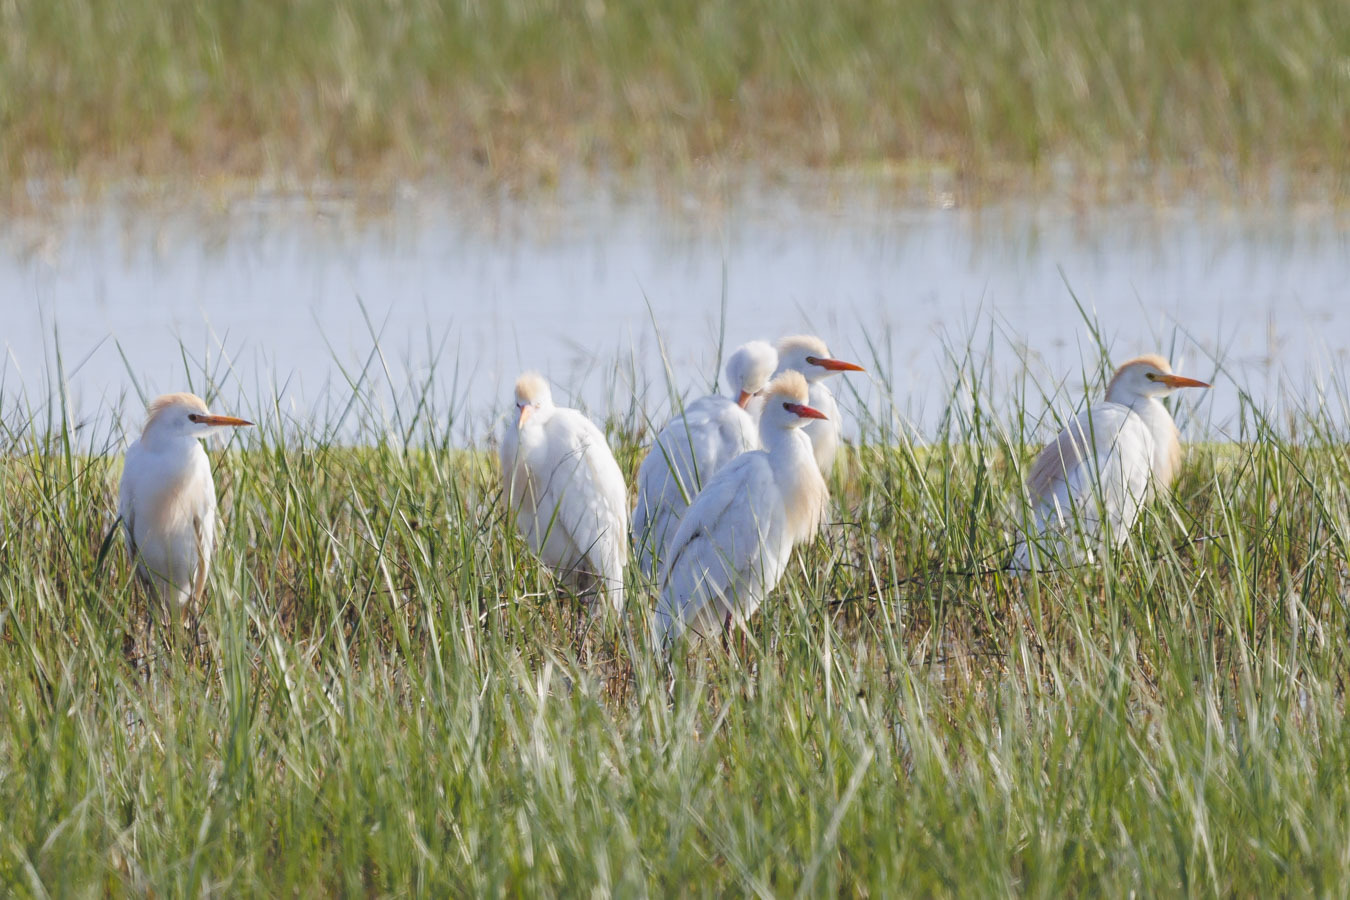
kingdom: Animalia
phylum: Chordata
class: Aves
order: Pelecaniformes
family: Ardeidae
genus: Bubulcus
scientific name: Bubulcus ibis
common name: Cattle egret
